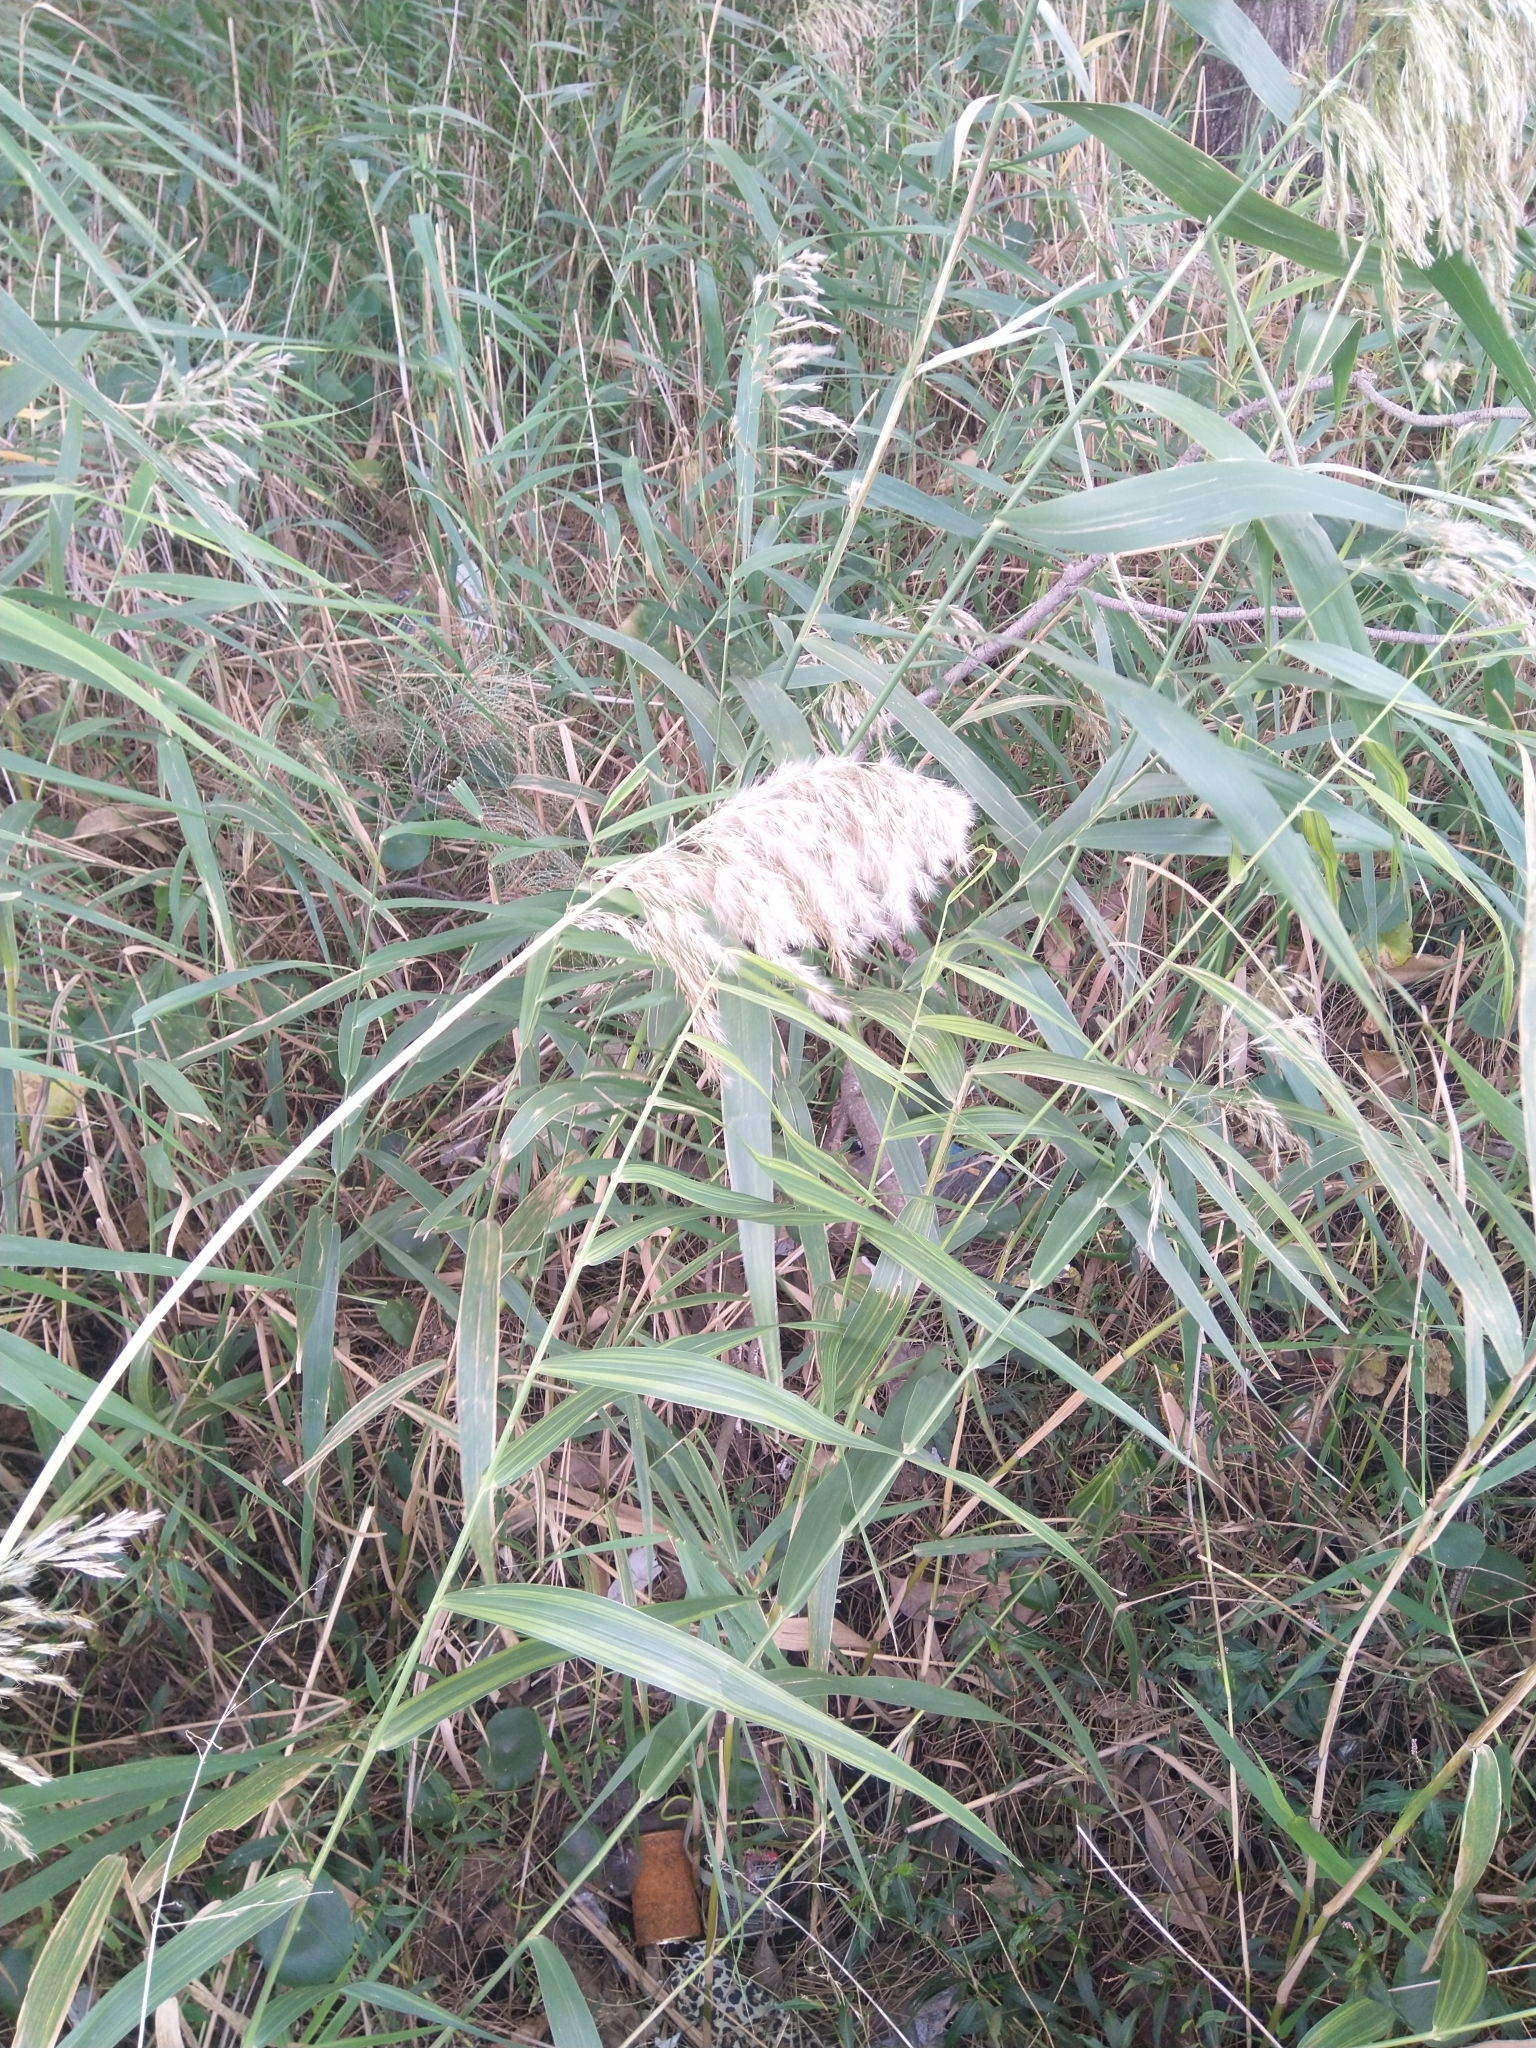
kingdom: Plantae
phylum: Tracheophyta
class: Liliopsida
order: Poales
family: Poaceae
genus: Phragmites
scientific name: Phragmites australis
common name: Common reed
